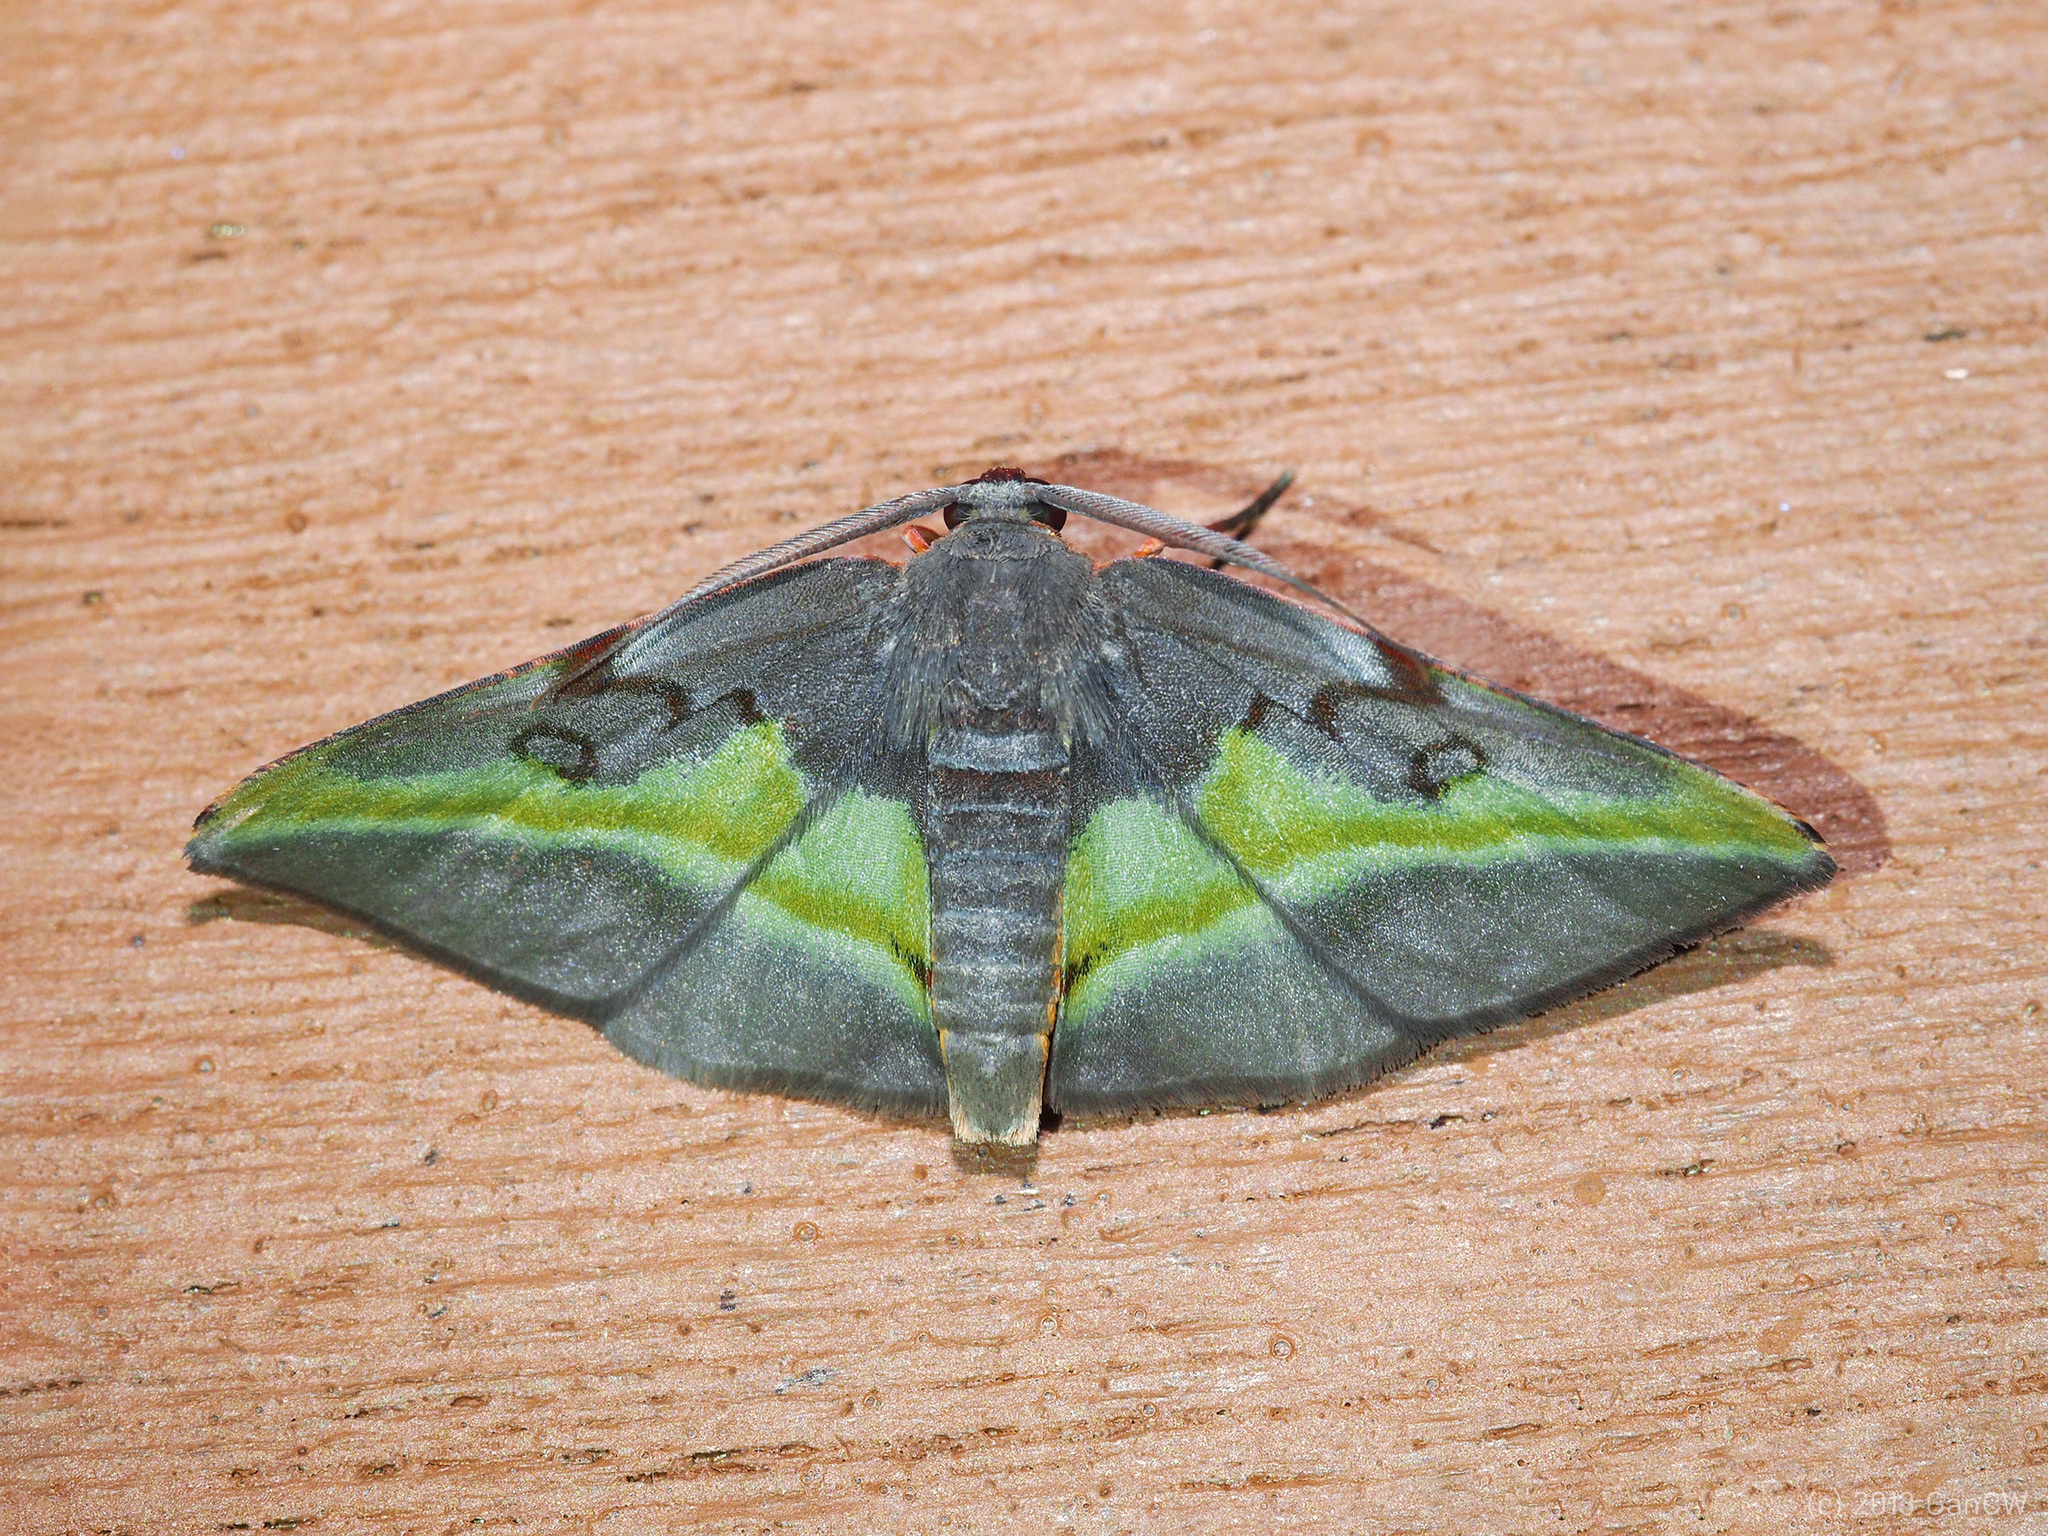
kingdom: Animalia
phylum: Arthropoda
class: Insecta
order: Lepidoptera
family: Geometridae
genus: Hypochrosis
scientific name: Hypochrosis cryptopyrrhata
